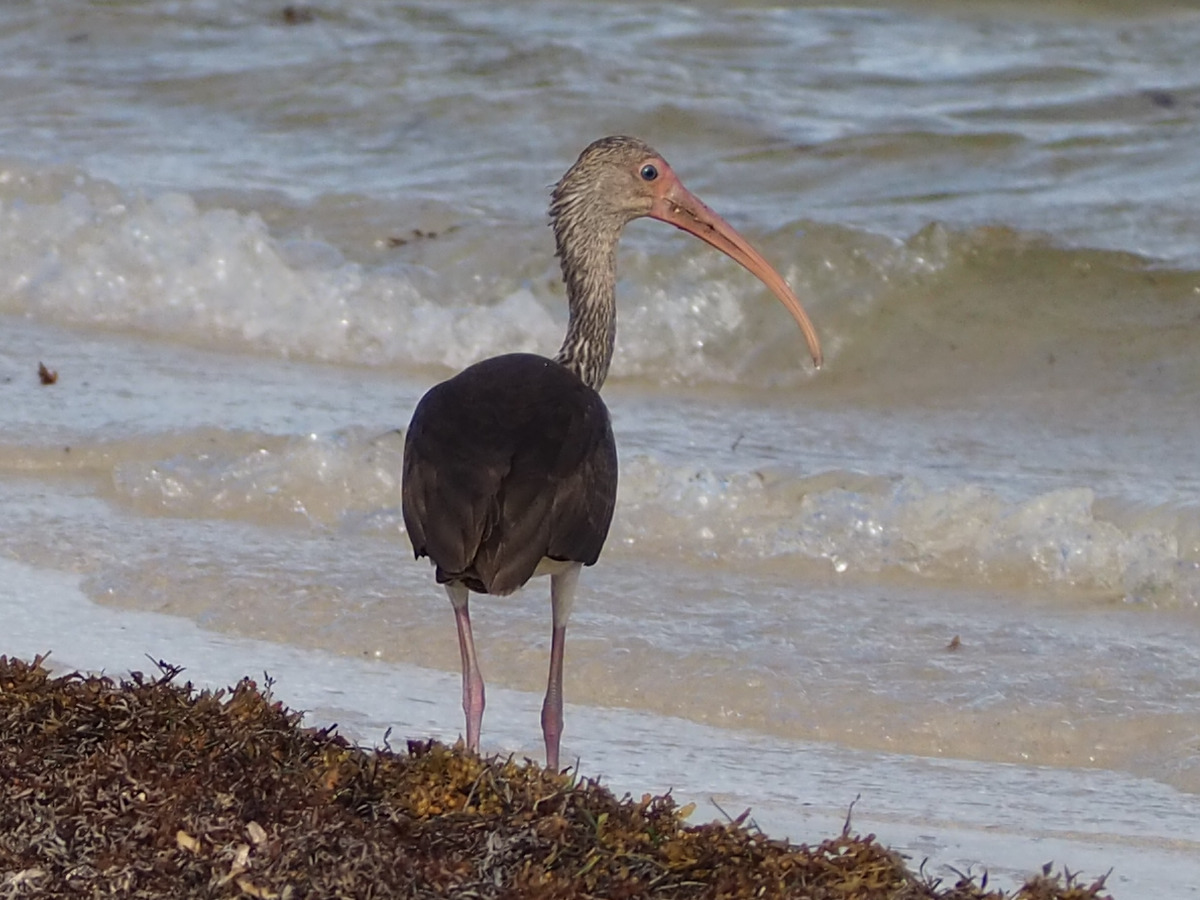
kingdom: Animalia
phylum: Chordata
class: Aves
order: Pelecaniformes
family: Threskiornithidae
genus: Eudocimus
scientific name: Eudocimus albus
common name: White ibis
